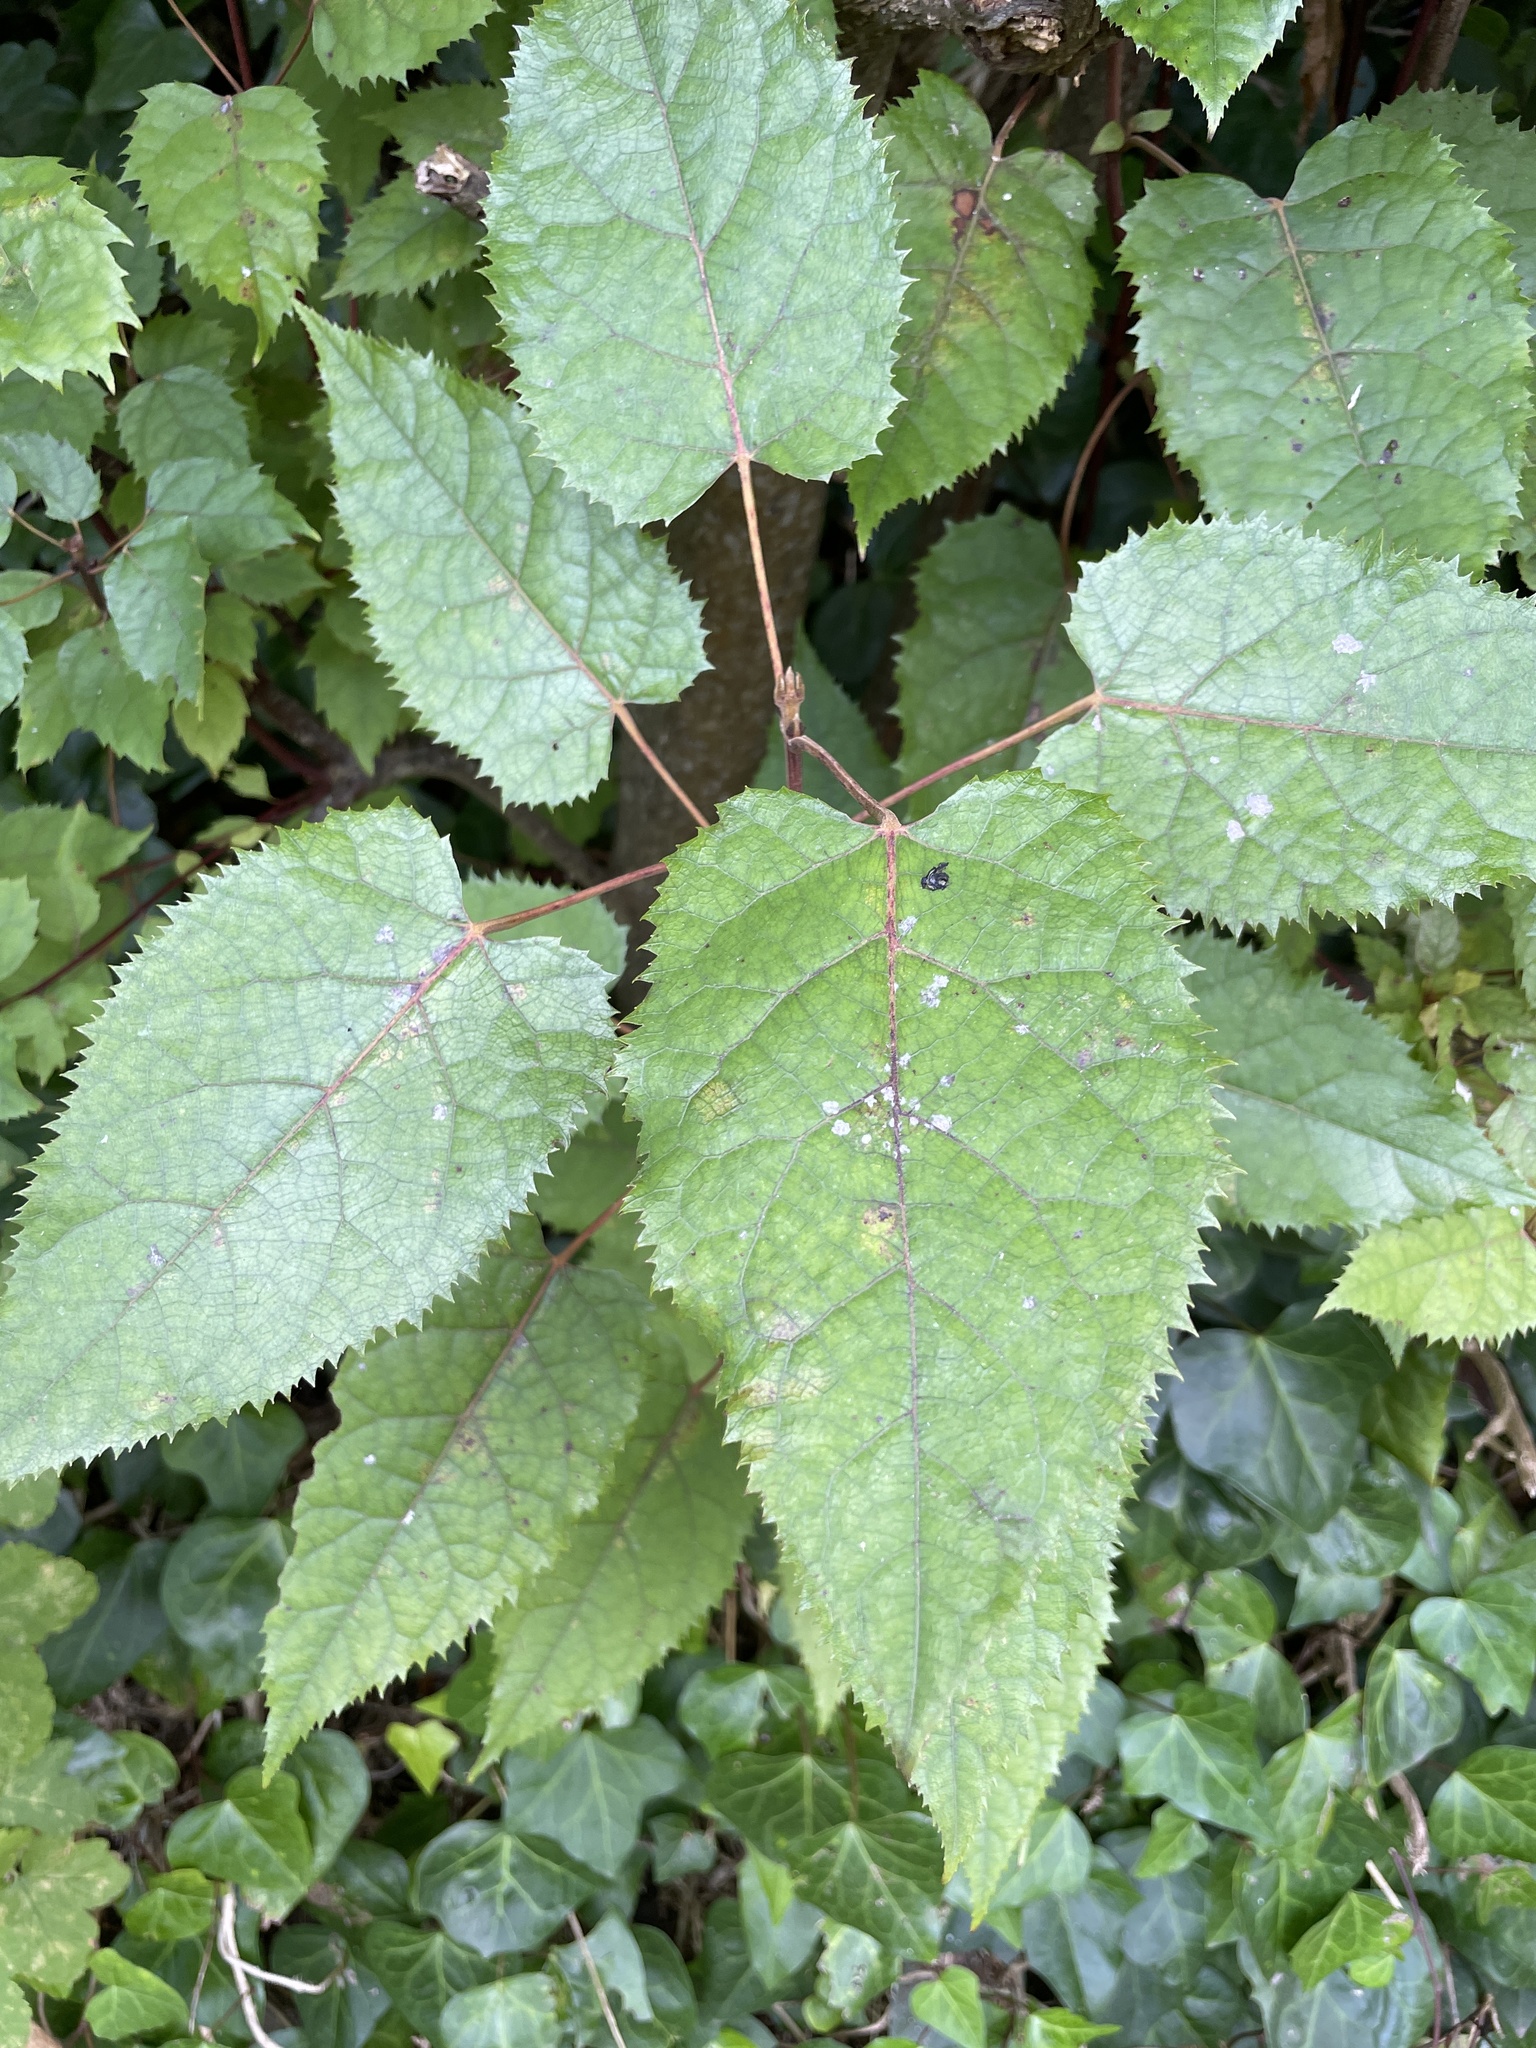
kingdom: Plantae
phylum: Tracheophyta
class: Magnoliopsida
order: Oxalidales
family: Elaeocarpaceae
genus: Aristotelia
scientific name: Aristotelia serrata
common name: New zealand wineberry
